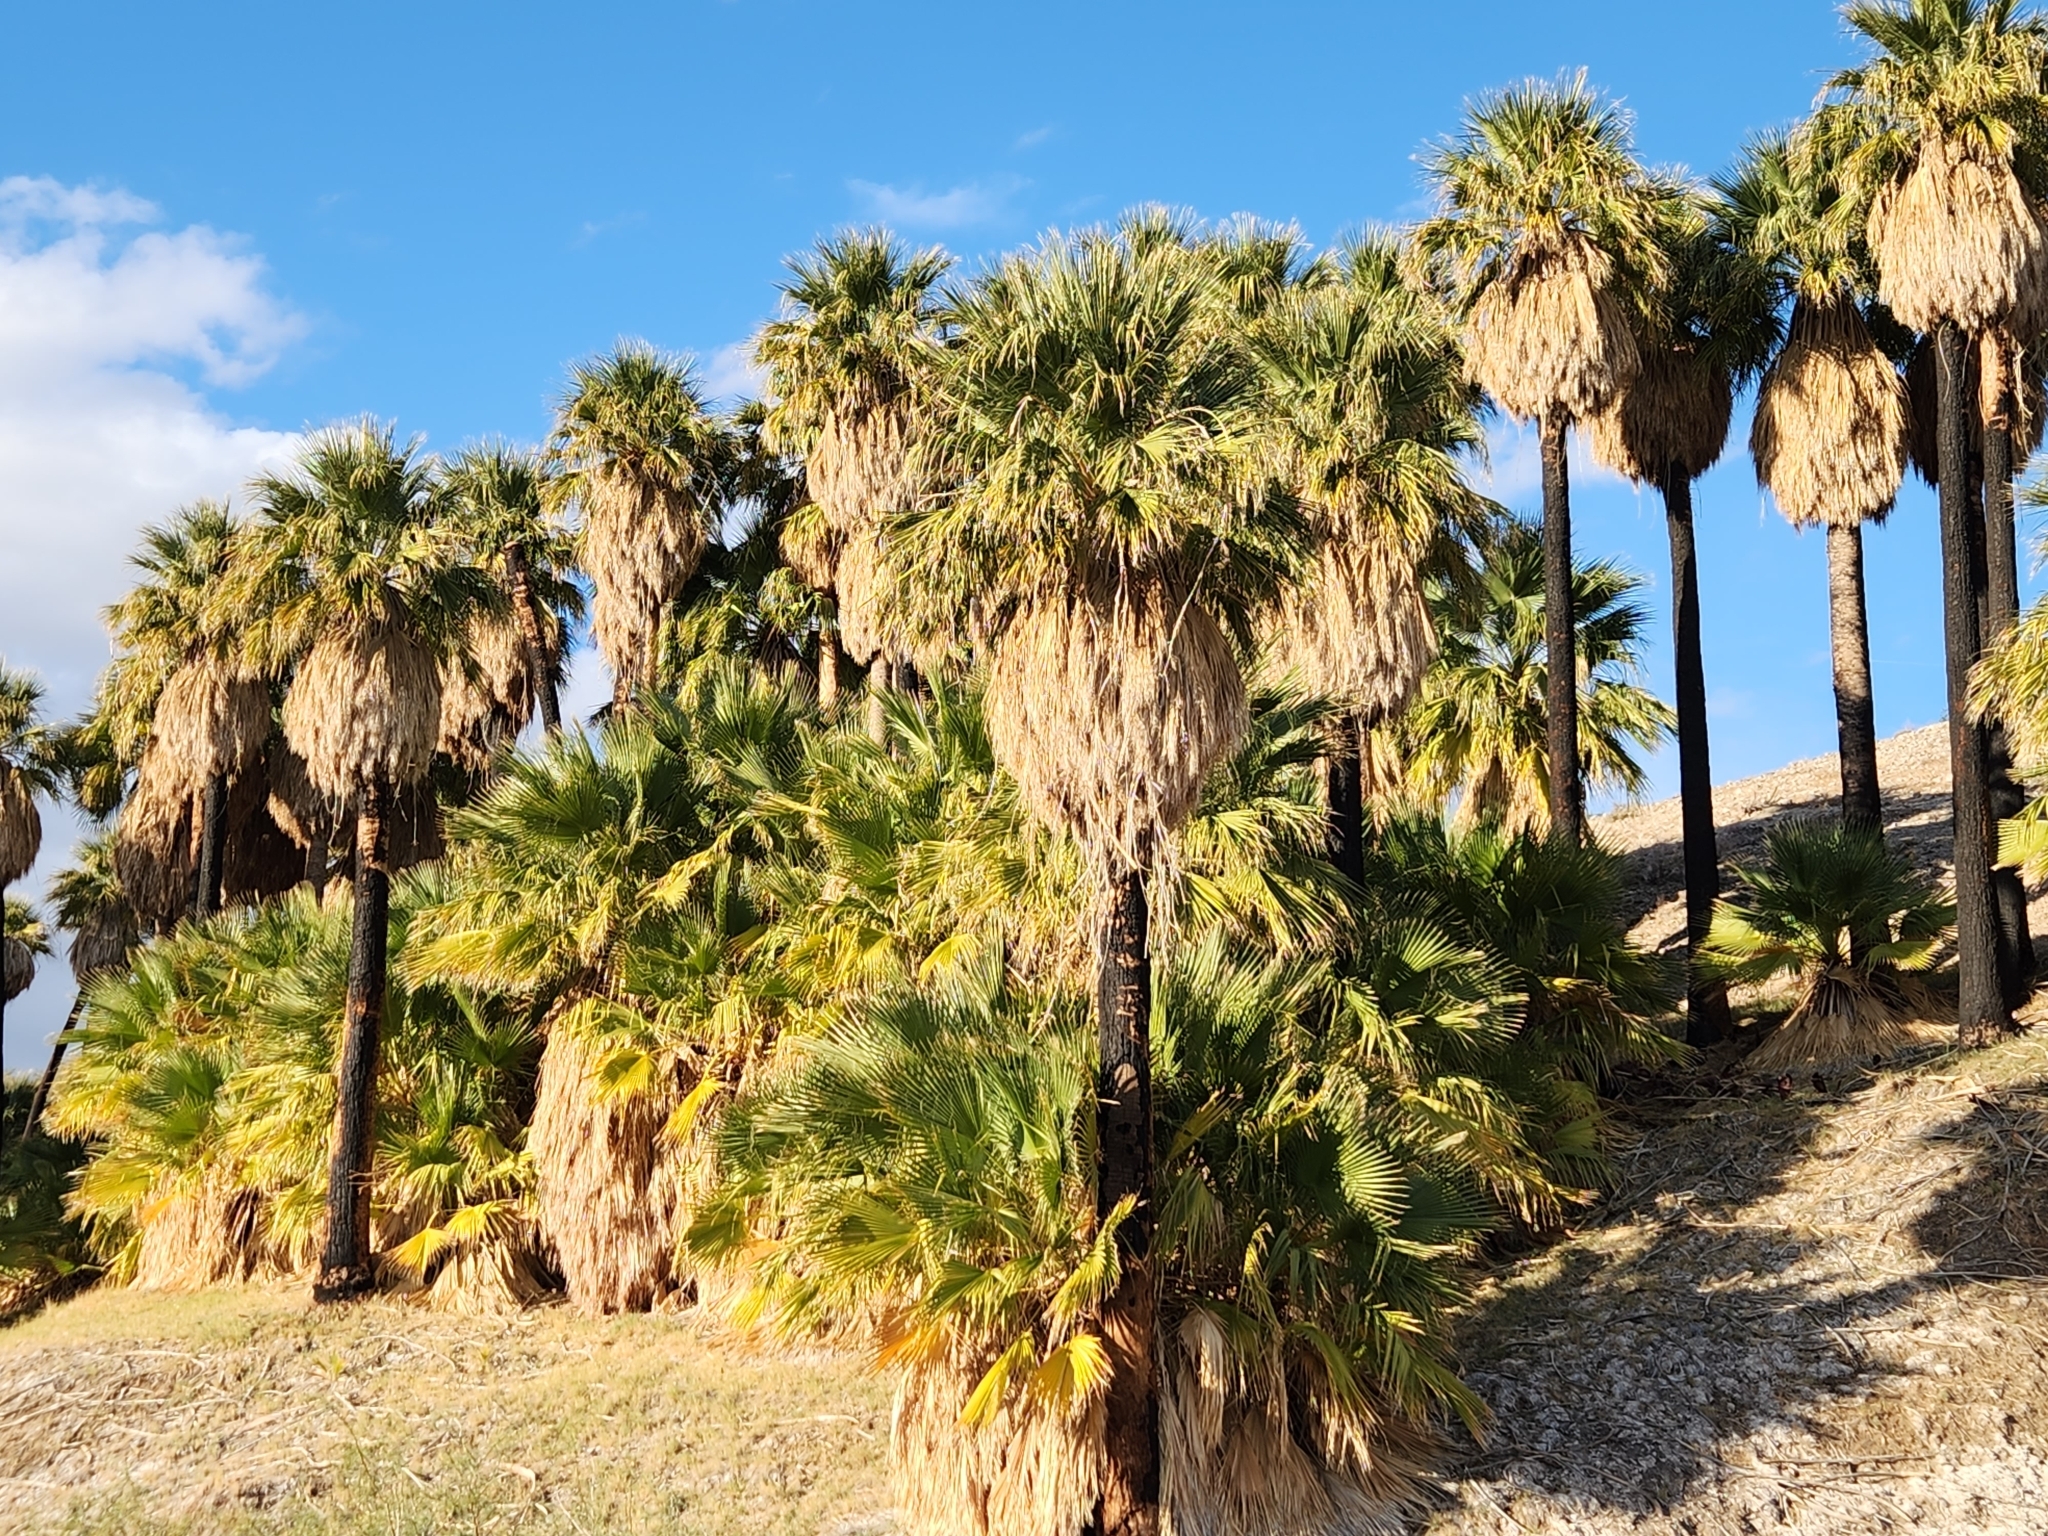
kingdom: Plantae
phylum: Tracheophyta
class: Liliopsida
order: Arecales
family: Arecaceae
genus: Washingtonia
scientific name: Washingtonia filifera
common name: California fan palm
